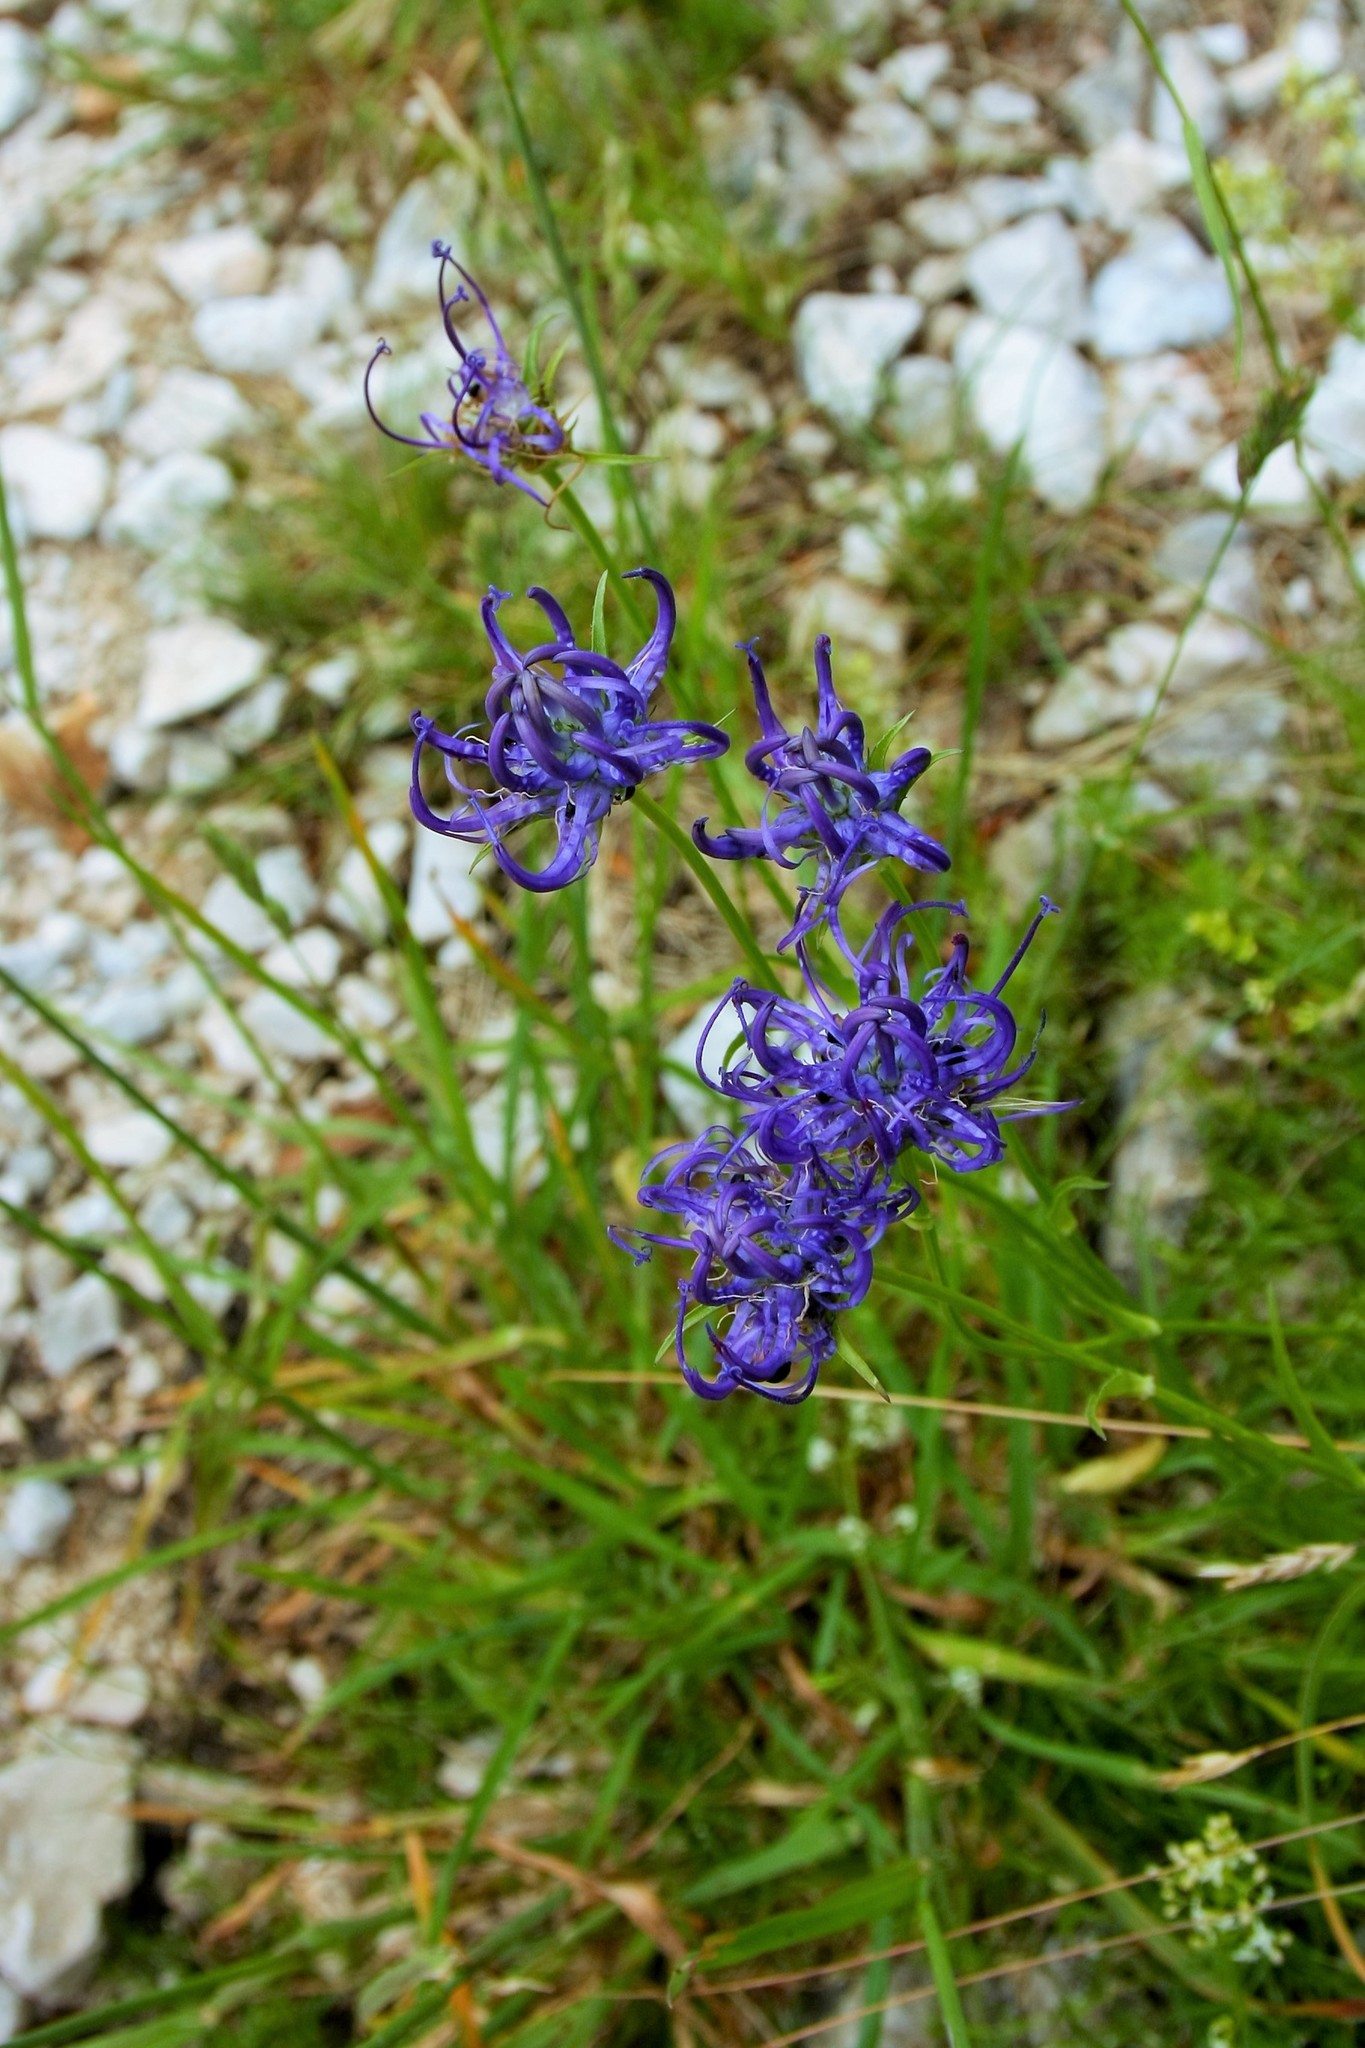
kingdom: Plantae
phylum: Tracheophyta
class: Magnoliopsida
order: Asterales
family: Campanulaceae
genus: Phyteuma
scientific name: Phyteuma orbiculare
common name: Round-headed rampion
